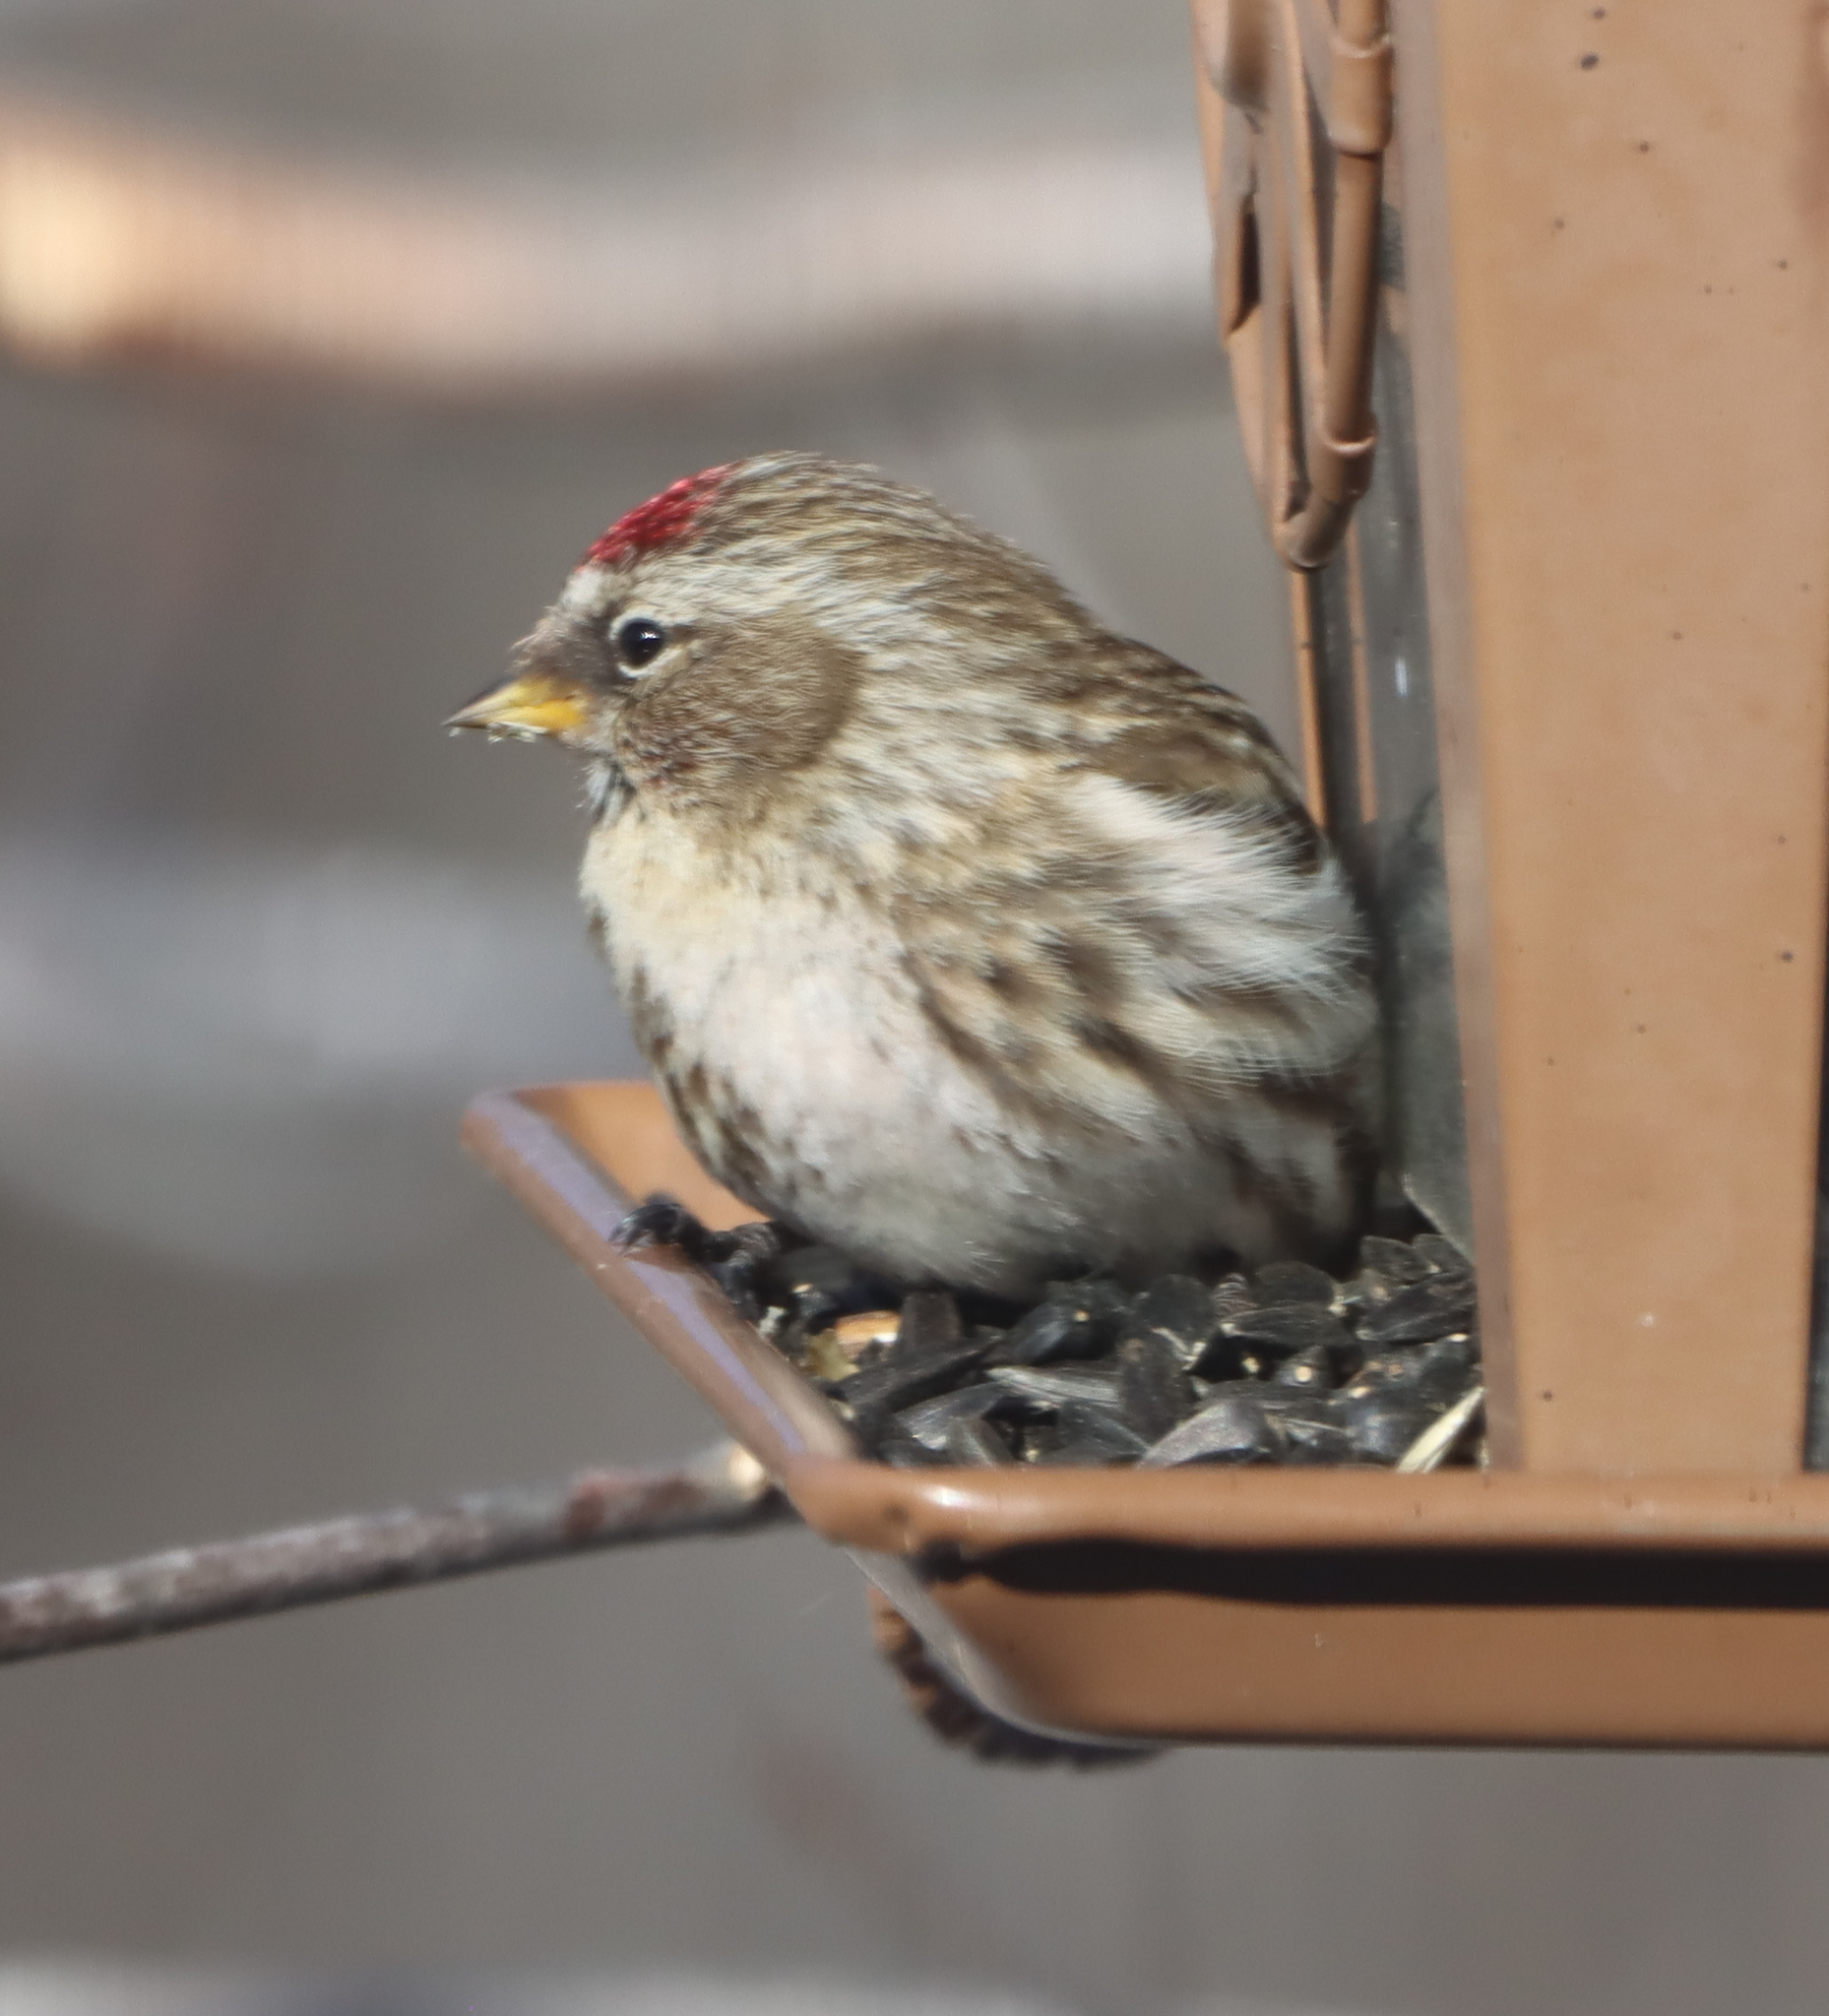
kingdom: Animalia
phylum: Chordata
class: Aves
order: Passeriformes
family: Fringillidae
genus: Acanthis
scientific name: Acanthis flammea
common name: Common redpoll
